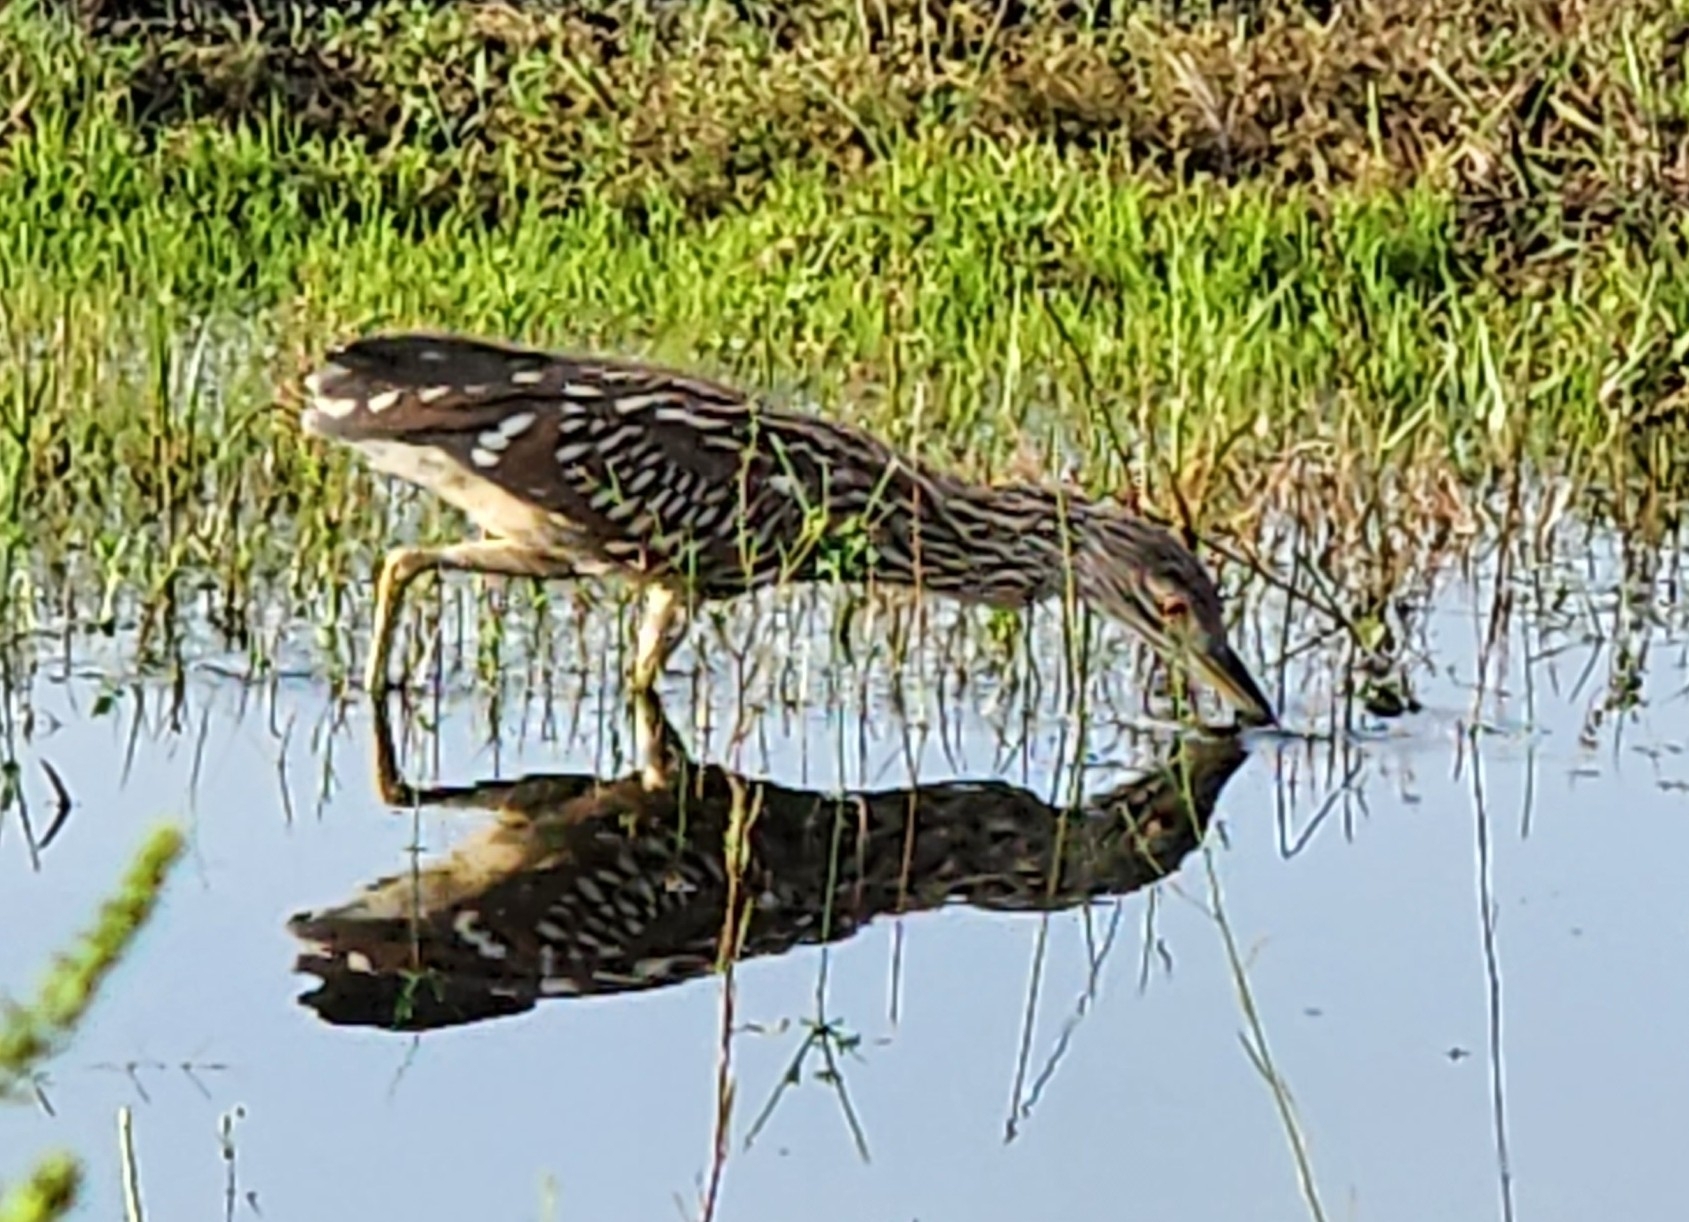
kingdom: Animalia
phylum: Chordata
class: Aves
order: Pelecaniformes
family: Ardeidae
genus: Nycticorax
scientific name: Nycticorax nycticorax
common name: Black-crowned night heron
